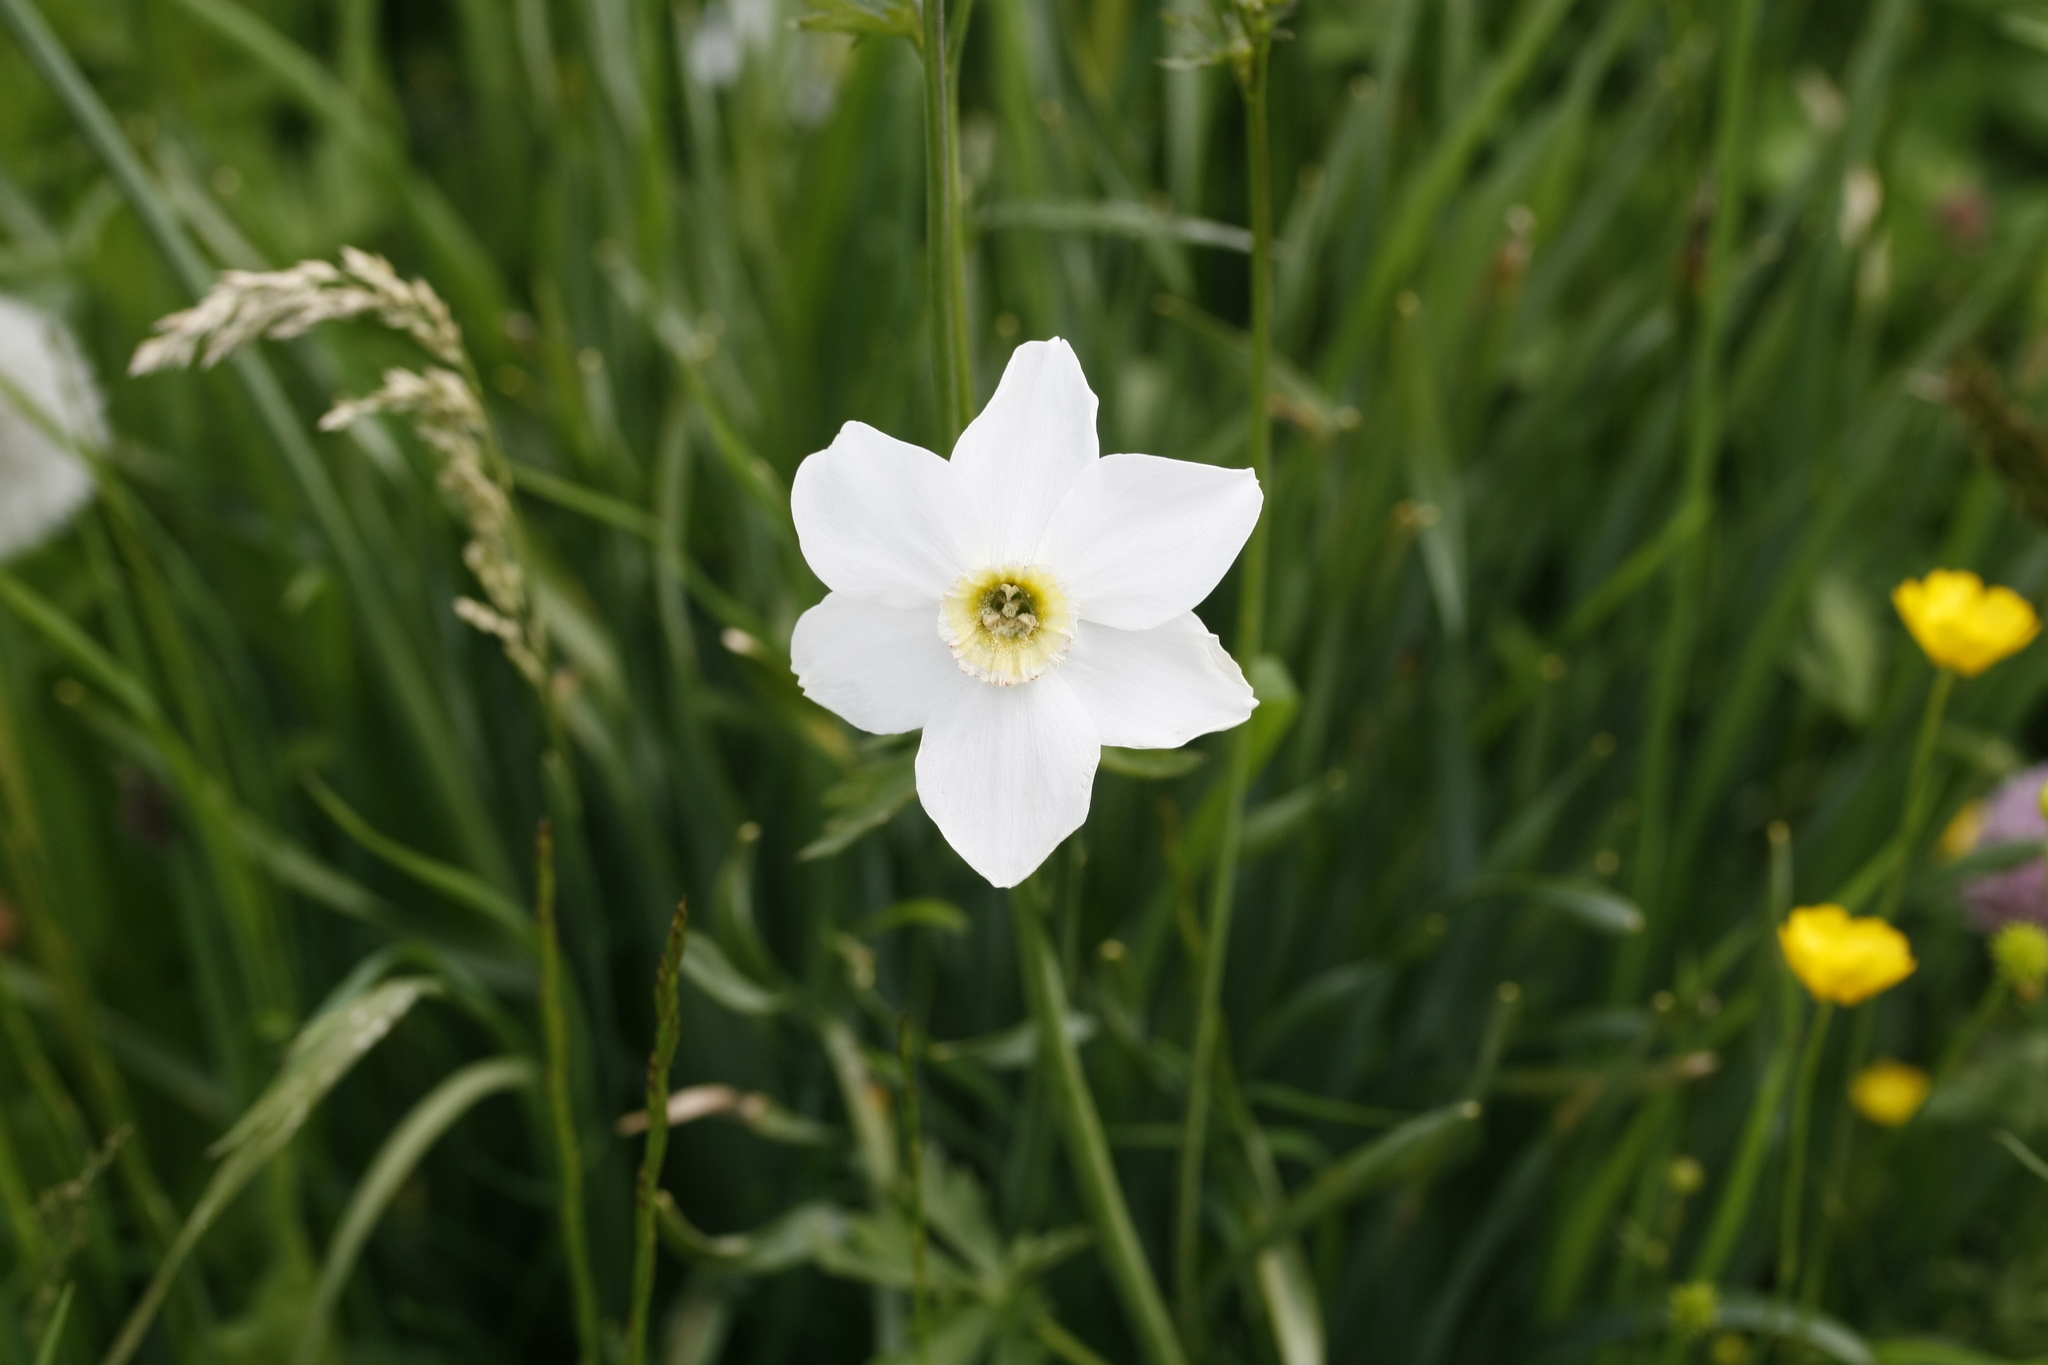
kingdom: Plantae
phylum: Tracheophyta
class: Liliopsida
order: Asparagales
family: Amaryllidaceae
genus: Narcissus
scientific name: Narcissus poeticus
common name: Pheasant's-eye daffodil
